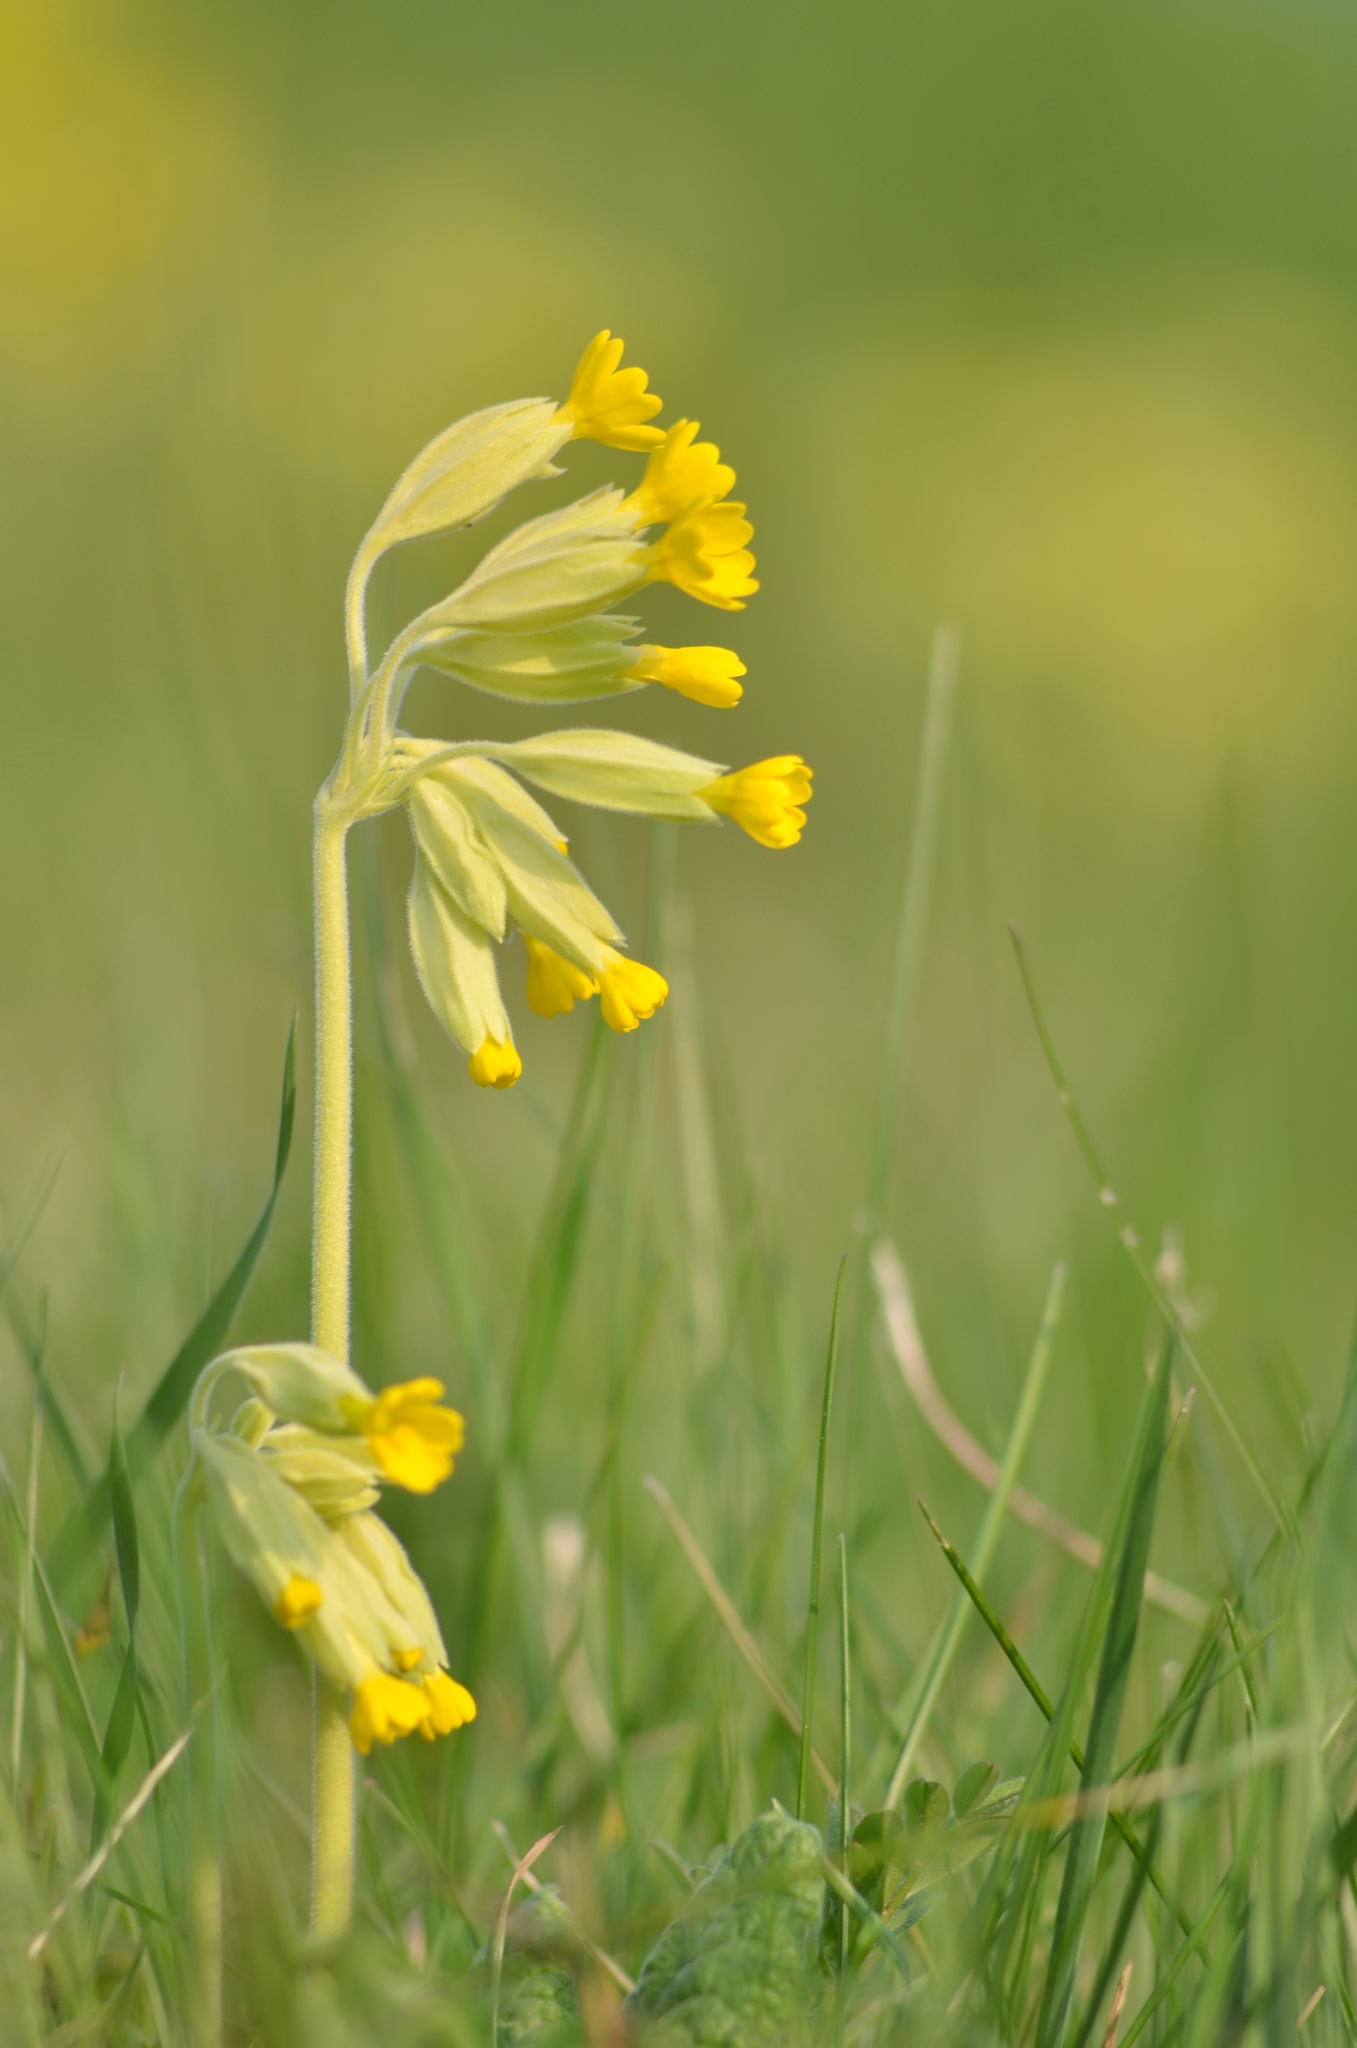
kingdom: Plantae
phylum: Tracheophyta
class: Magnoliopsida
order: Ericales
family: Primulaceae
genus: Primula
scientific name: Primula veris
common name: Cowslip
